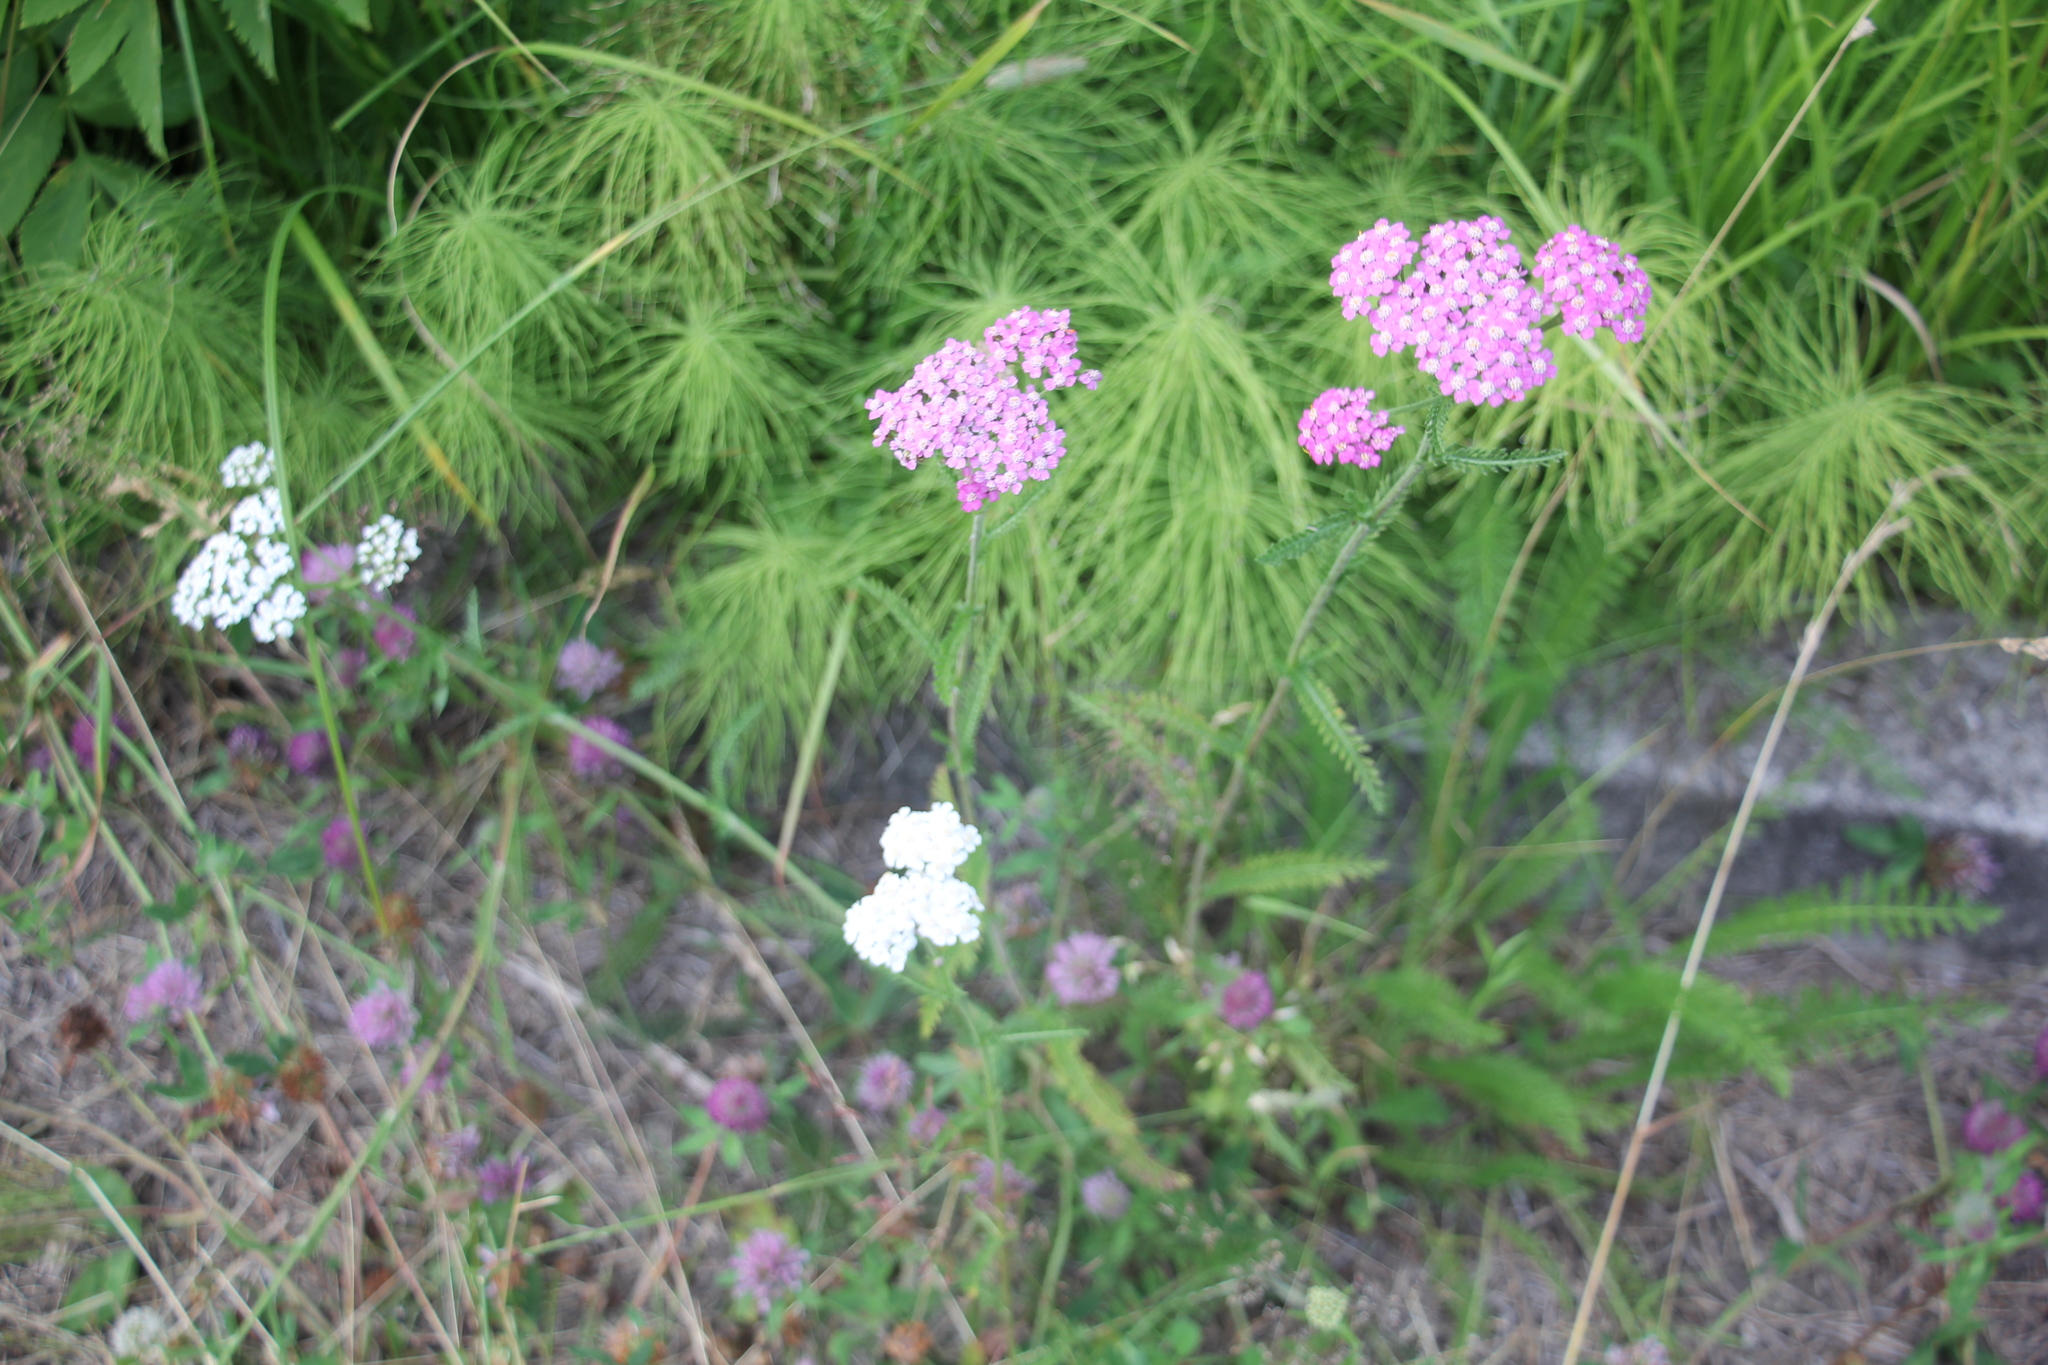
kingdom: Plantae
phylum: Tracheophyta
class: Magnoliopsida
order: Asterales
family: Asteraceae
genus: Achillea
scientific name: Achillea millefolium
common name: Yarrow
